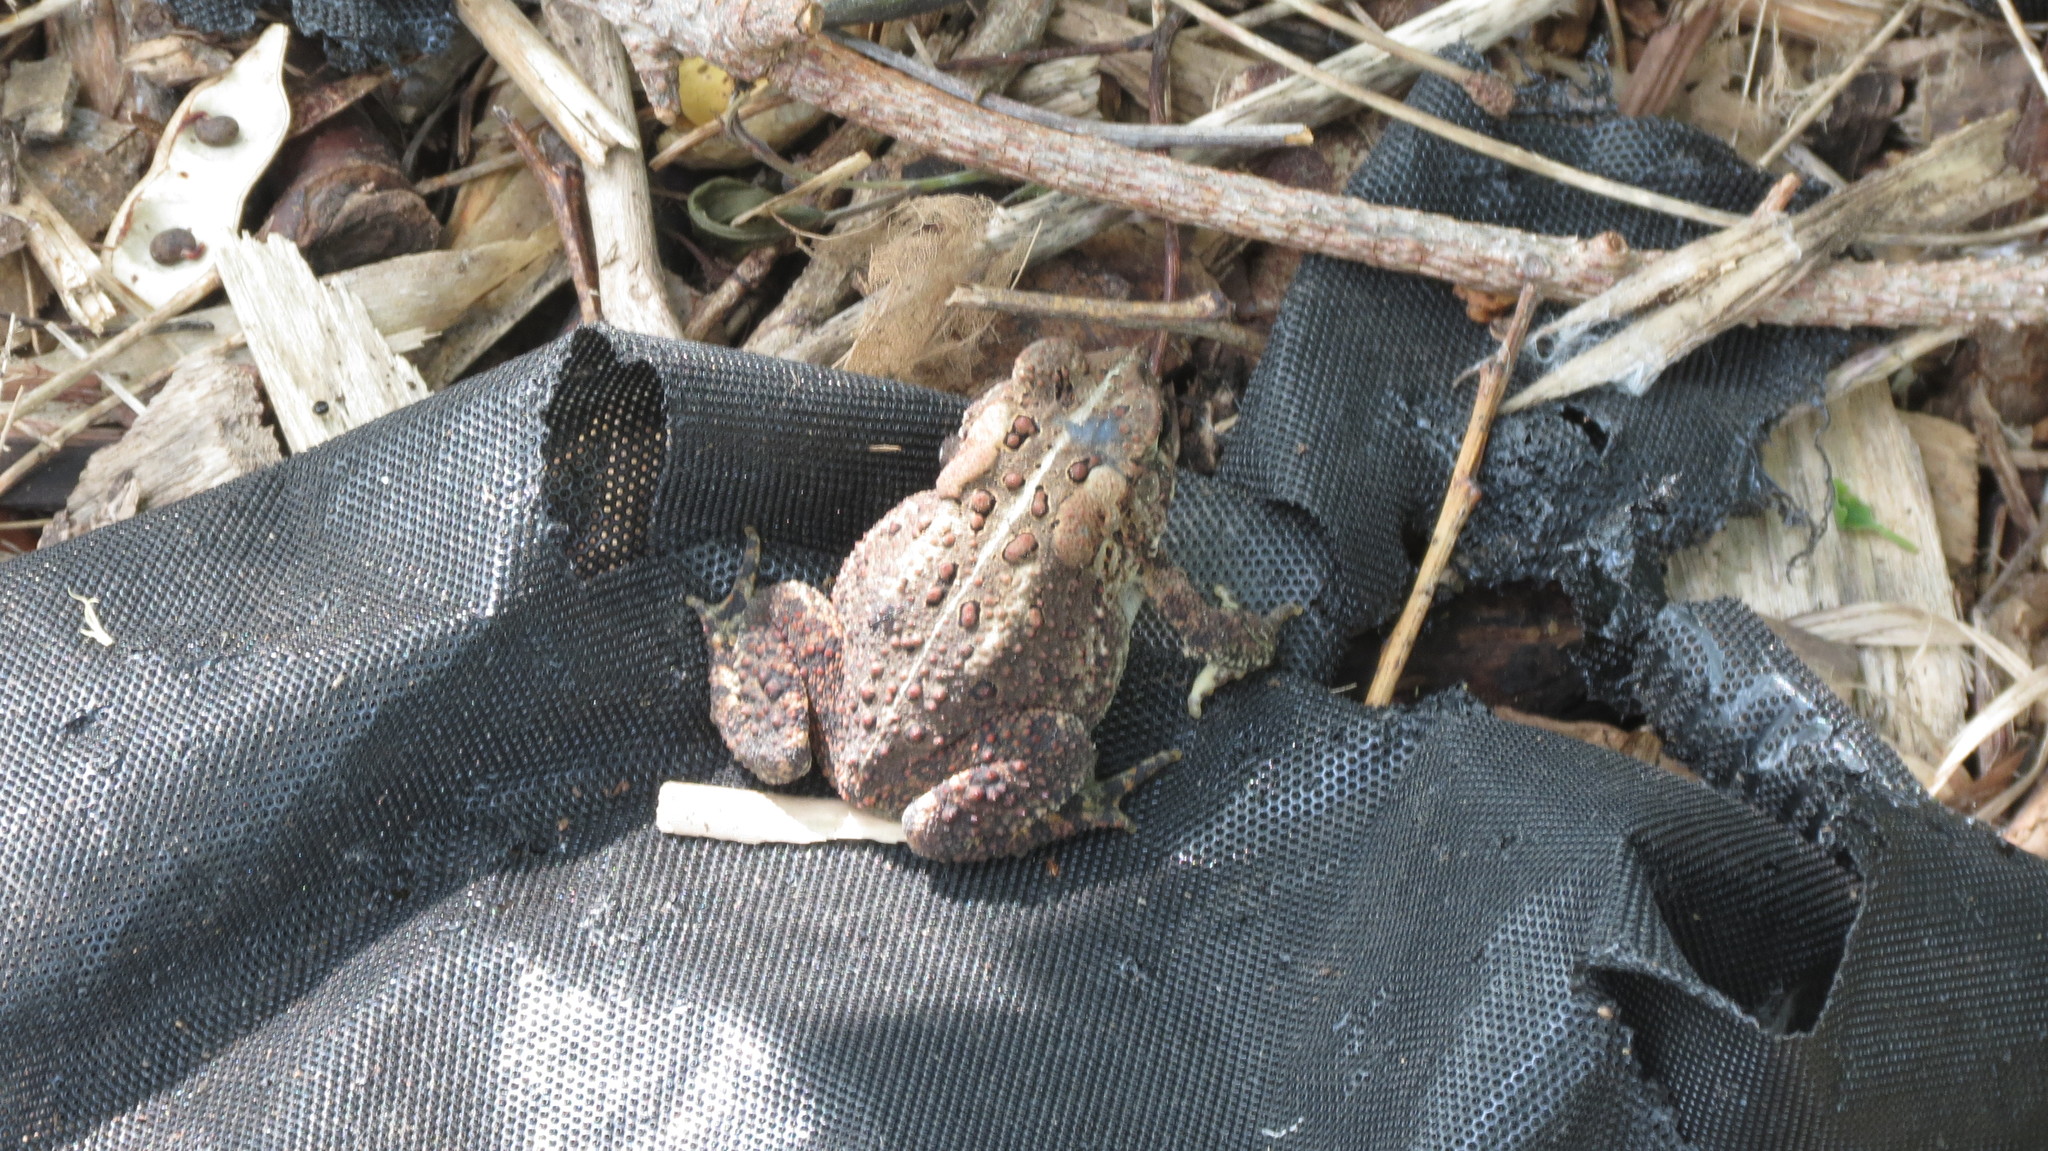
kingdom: Animalia
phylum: Chordata
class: Amphibia
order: Anura
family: Bufonidae
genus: Anaxyrus
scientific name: Anaxyrus americanus
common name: American toad
